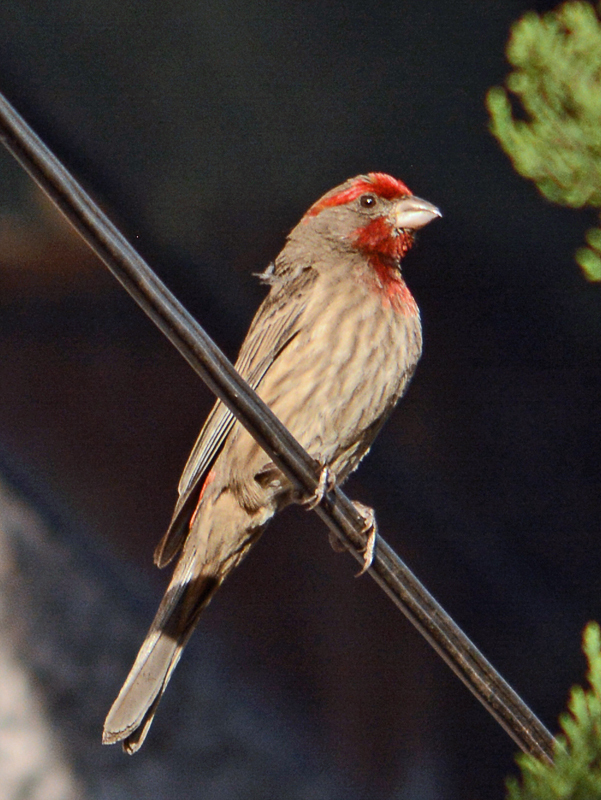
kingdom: Animalia
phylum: Chordata
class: Aves
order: Passeriformes
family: Fringillidae
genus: Haemorhous
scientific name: Haemorhous mexicanus
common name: House finch
